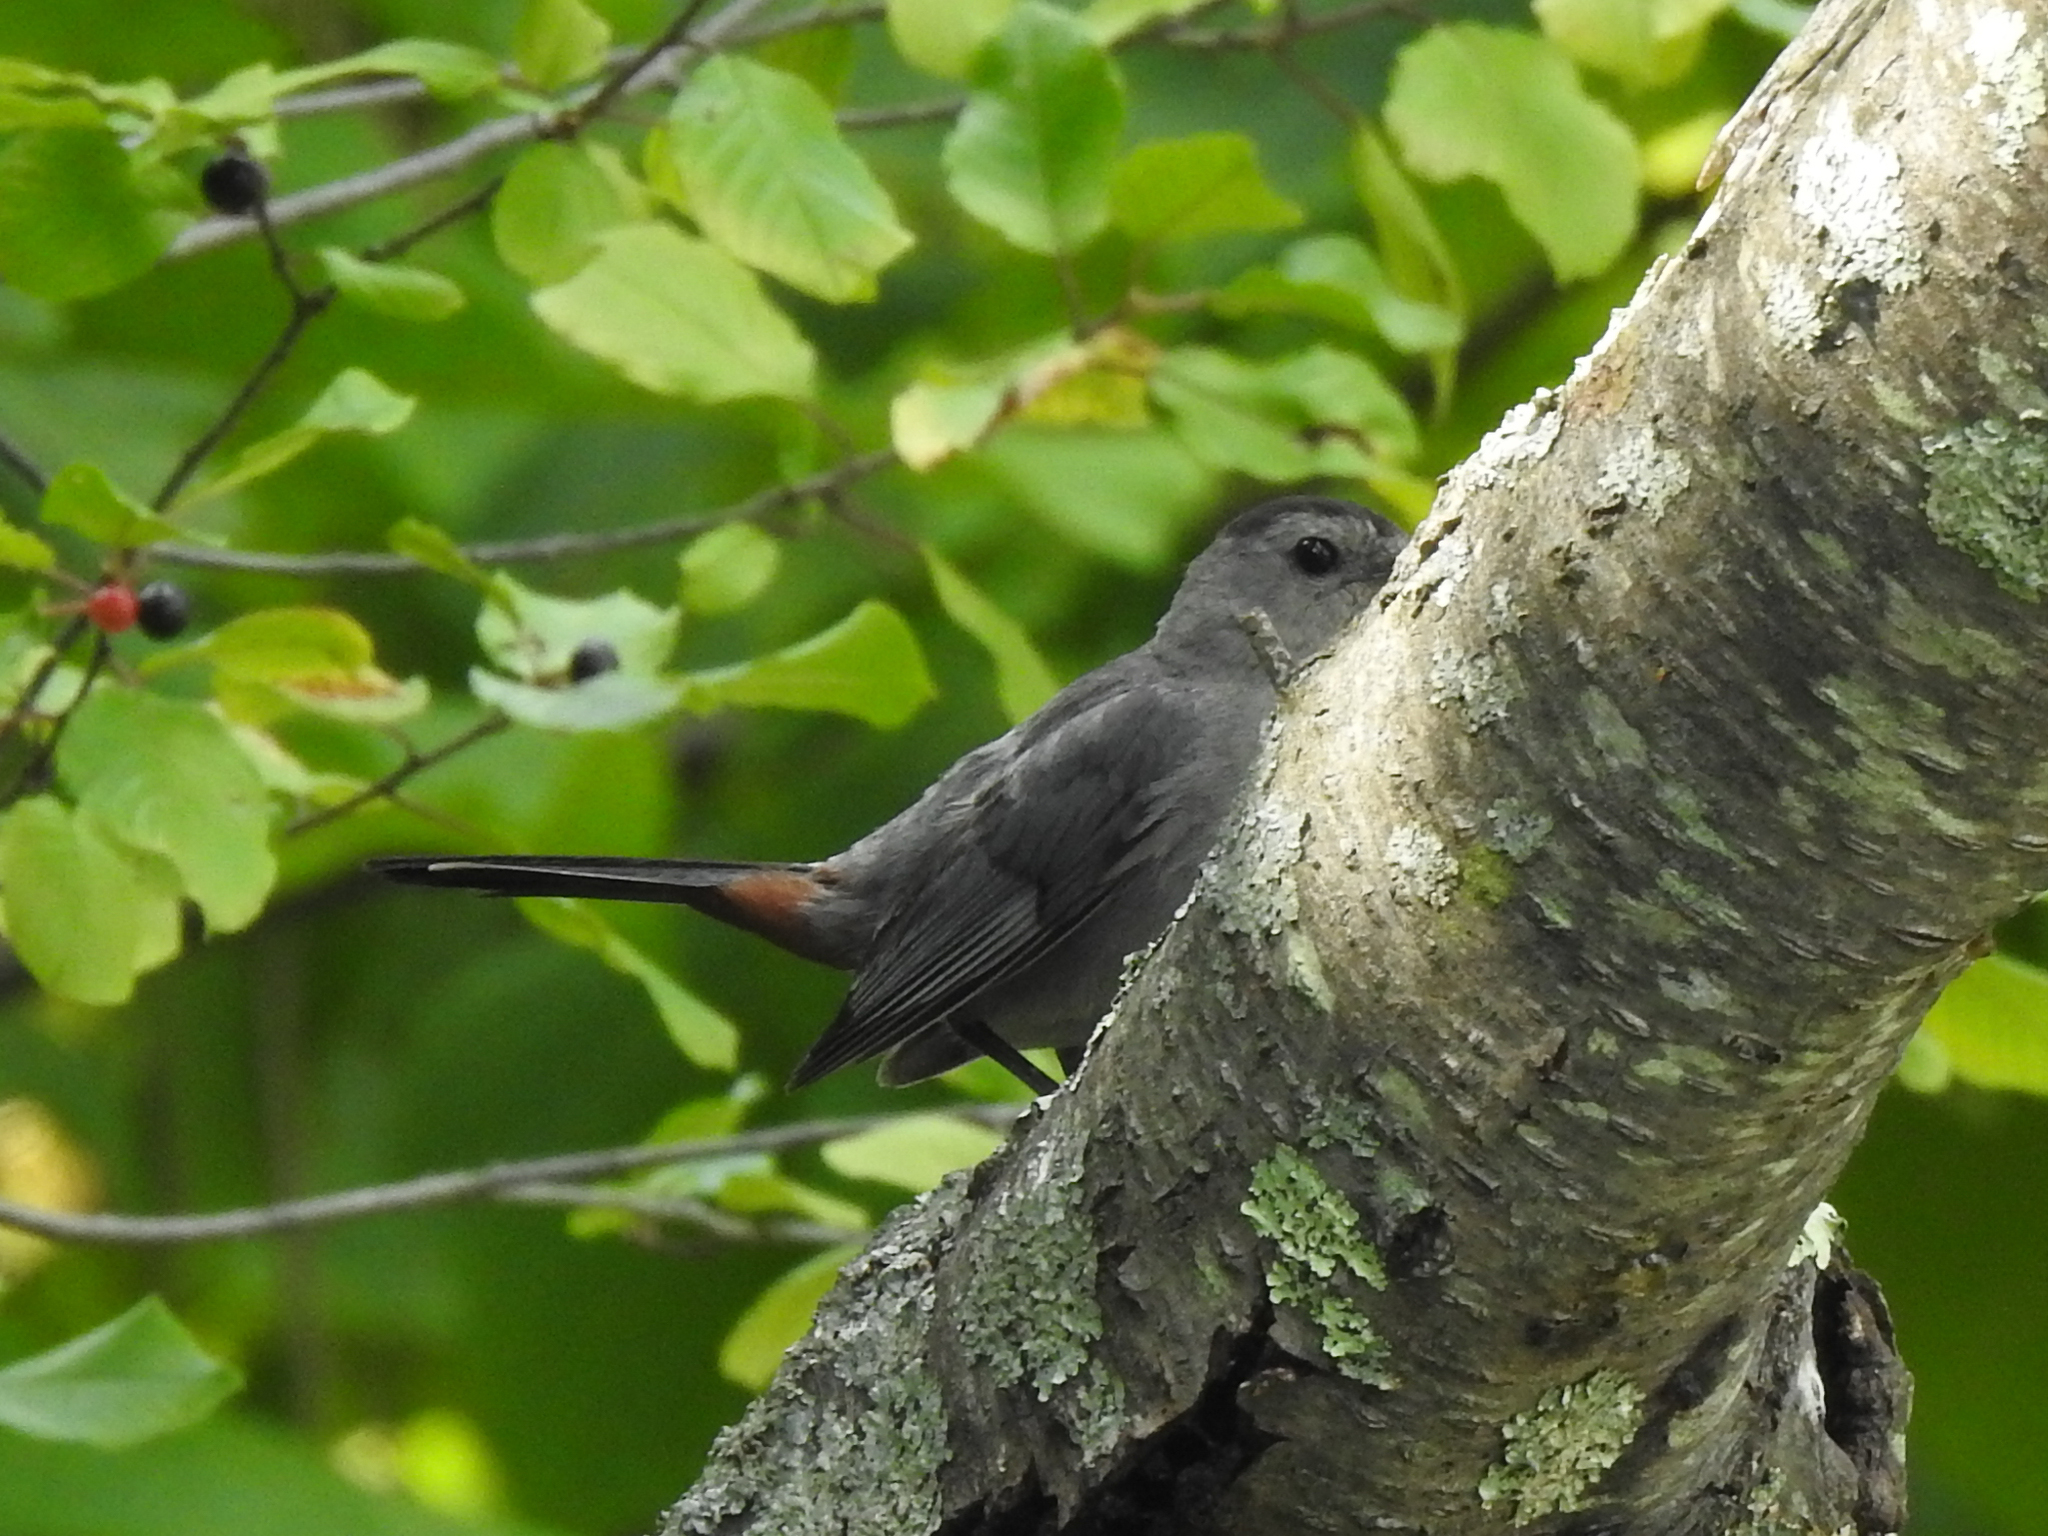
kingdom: Animalia
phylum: Chordata
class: Aves
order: Passeriformes
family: Mimidae
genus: Dumetella
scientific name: Dumetella carolinensis
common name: Gray catbird
